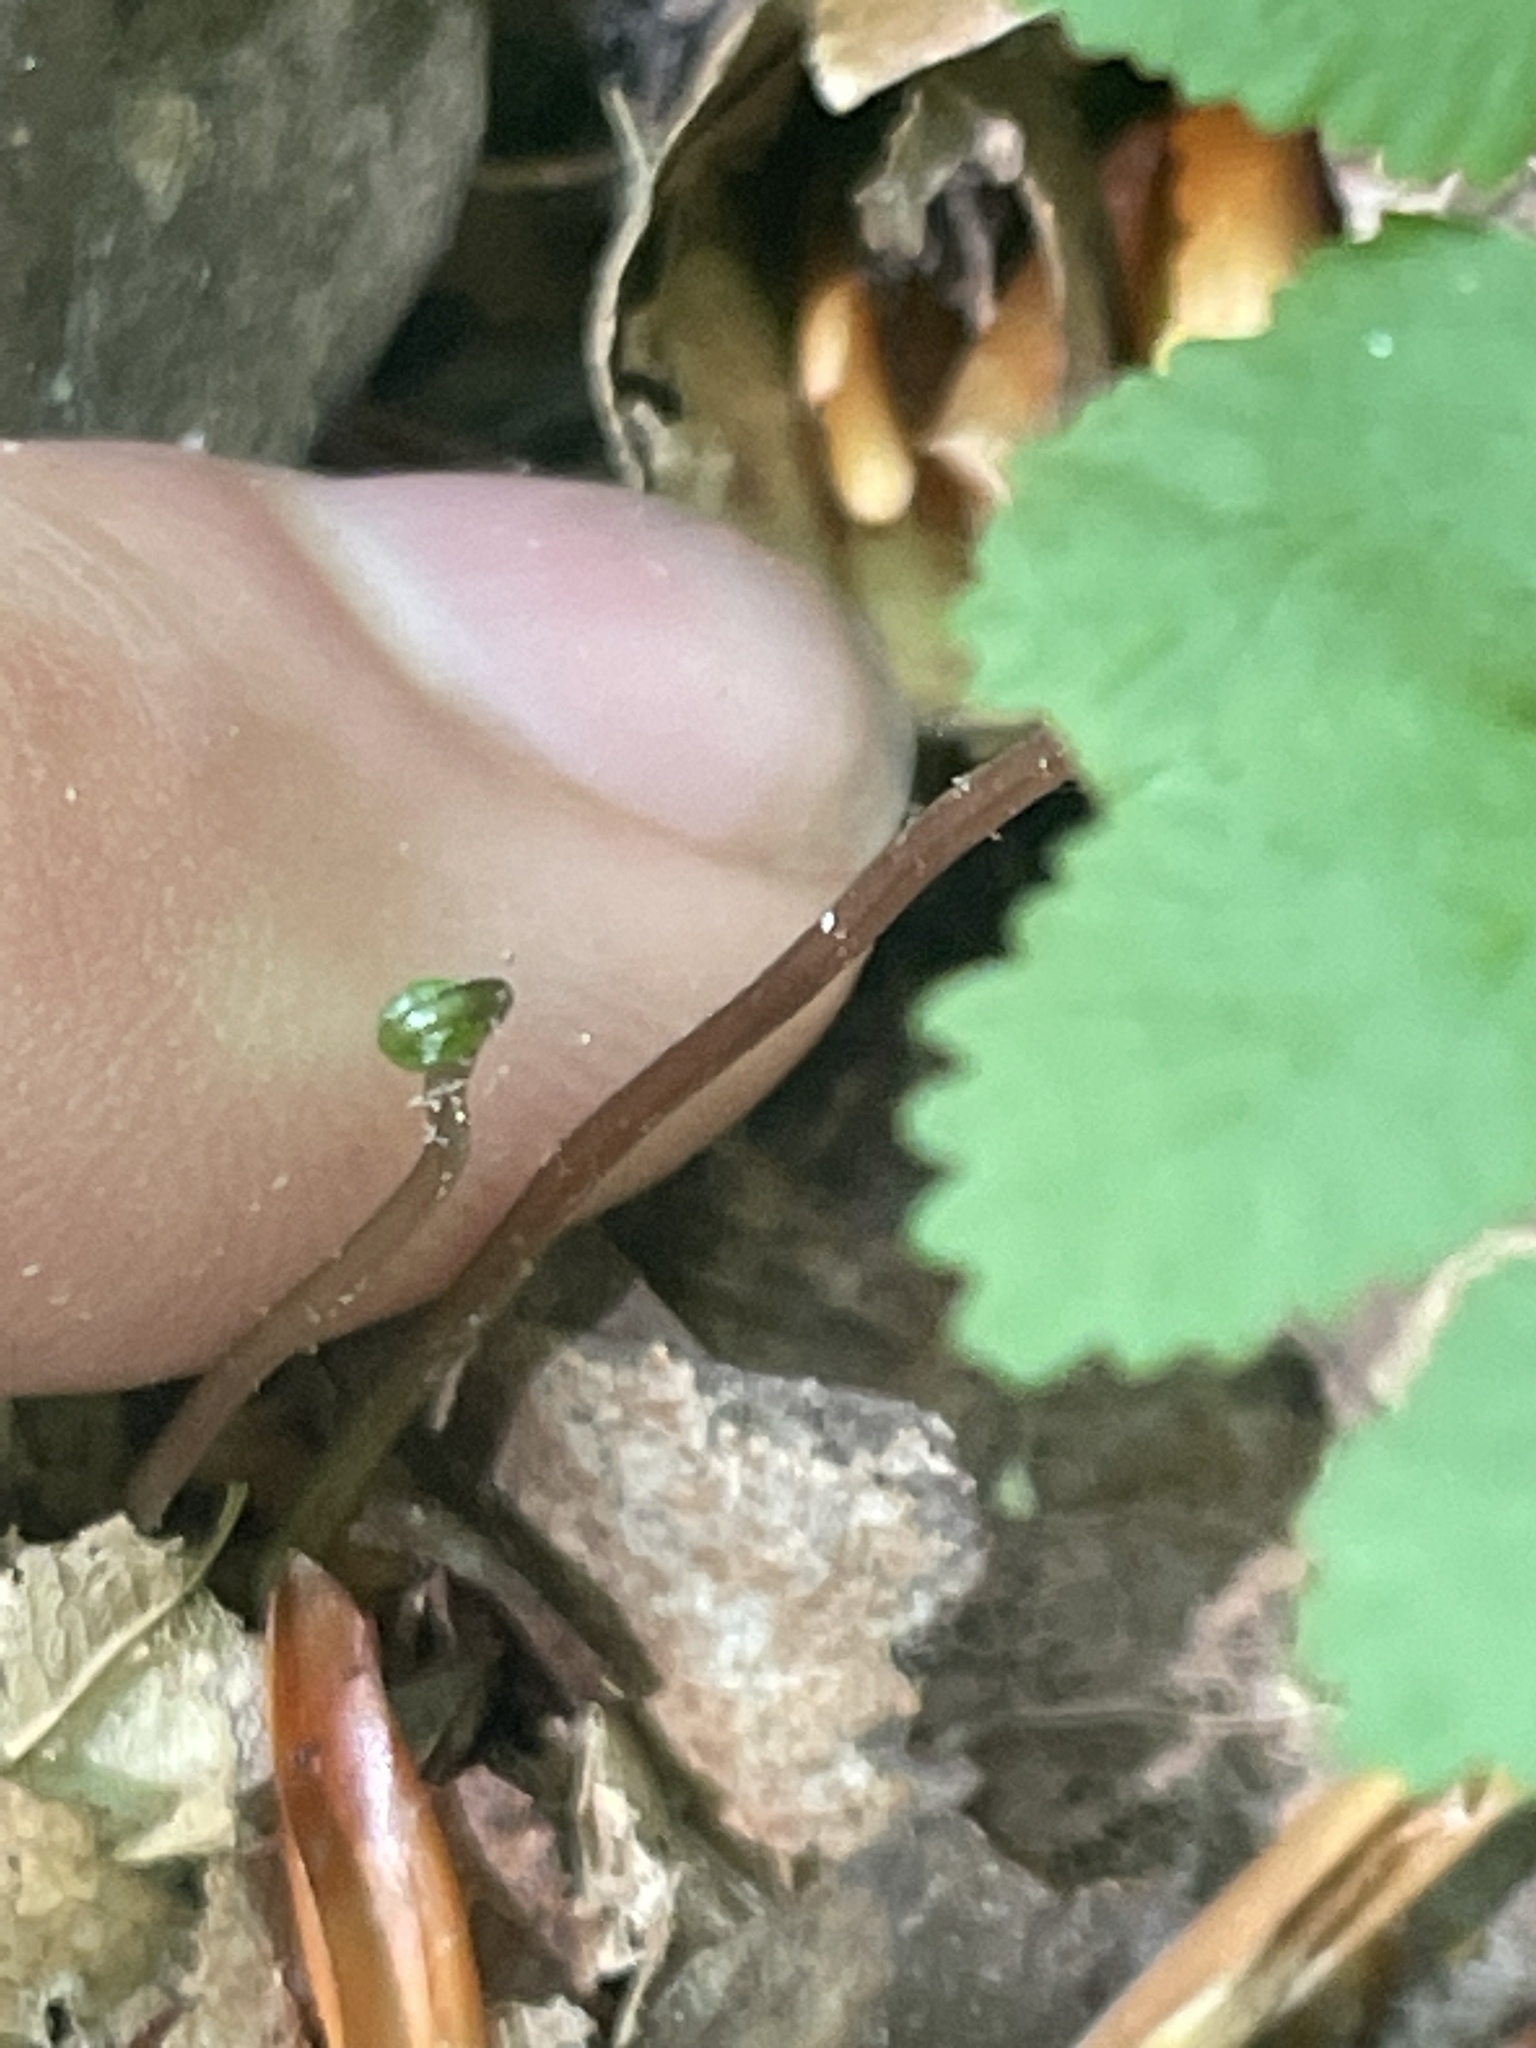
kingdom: Plantae
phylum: Tracheophyta
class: Polypodiopsida
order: Ophioglossales
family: Ophioglossaceae
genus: Botrypus
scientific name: Botrypus virginianus
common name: Common grapefern
